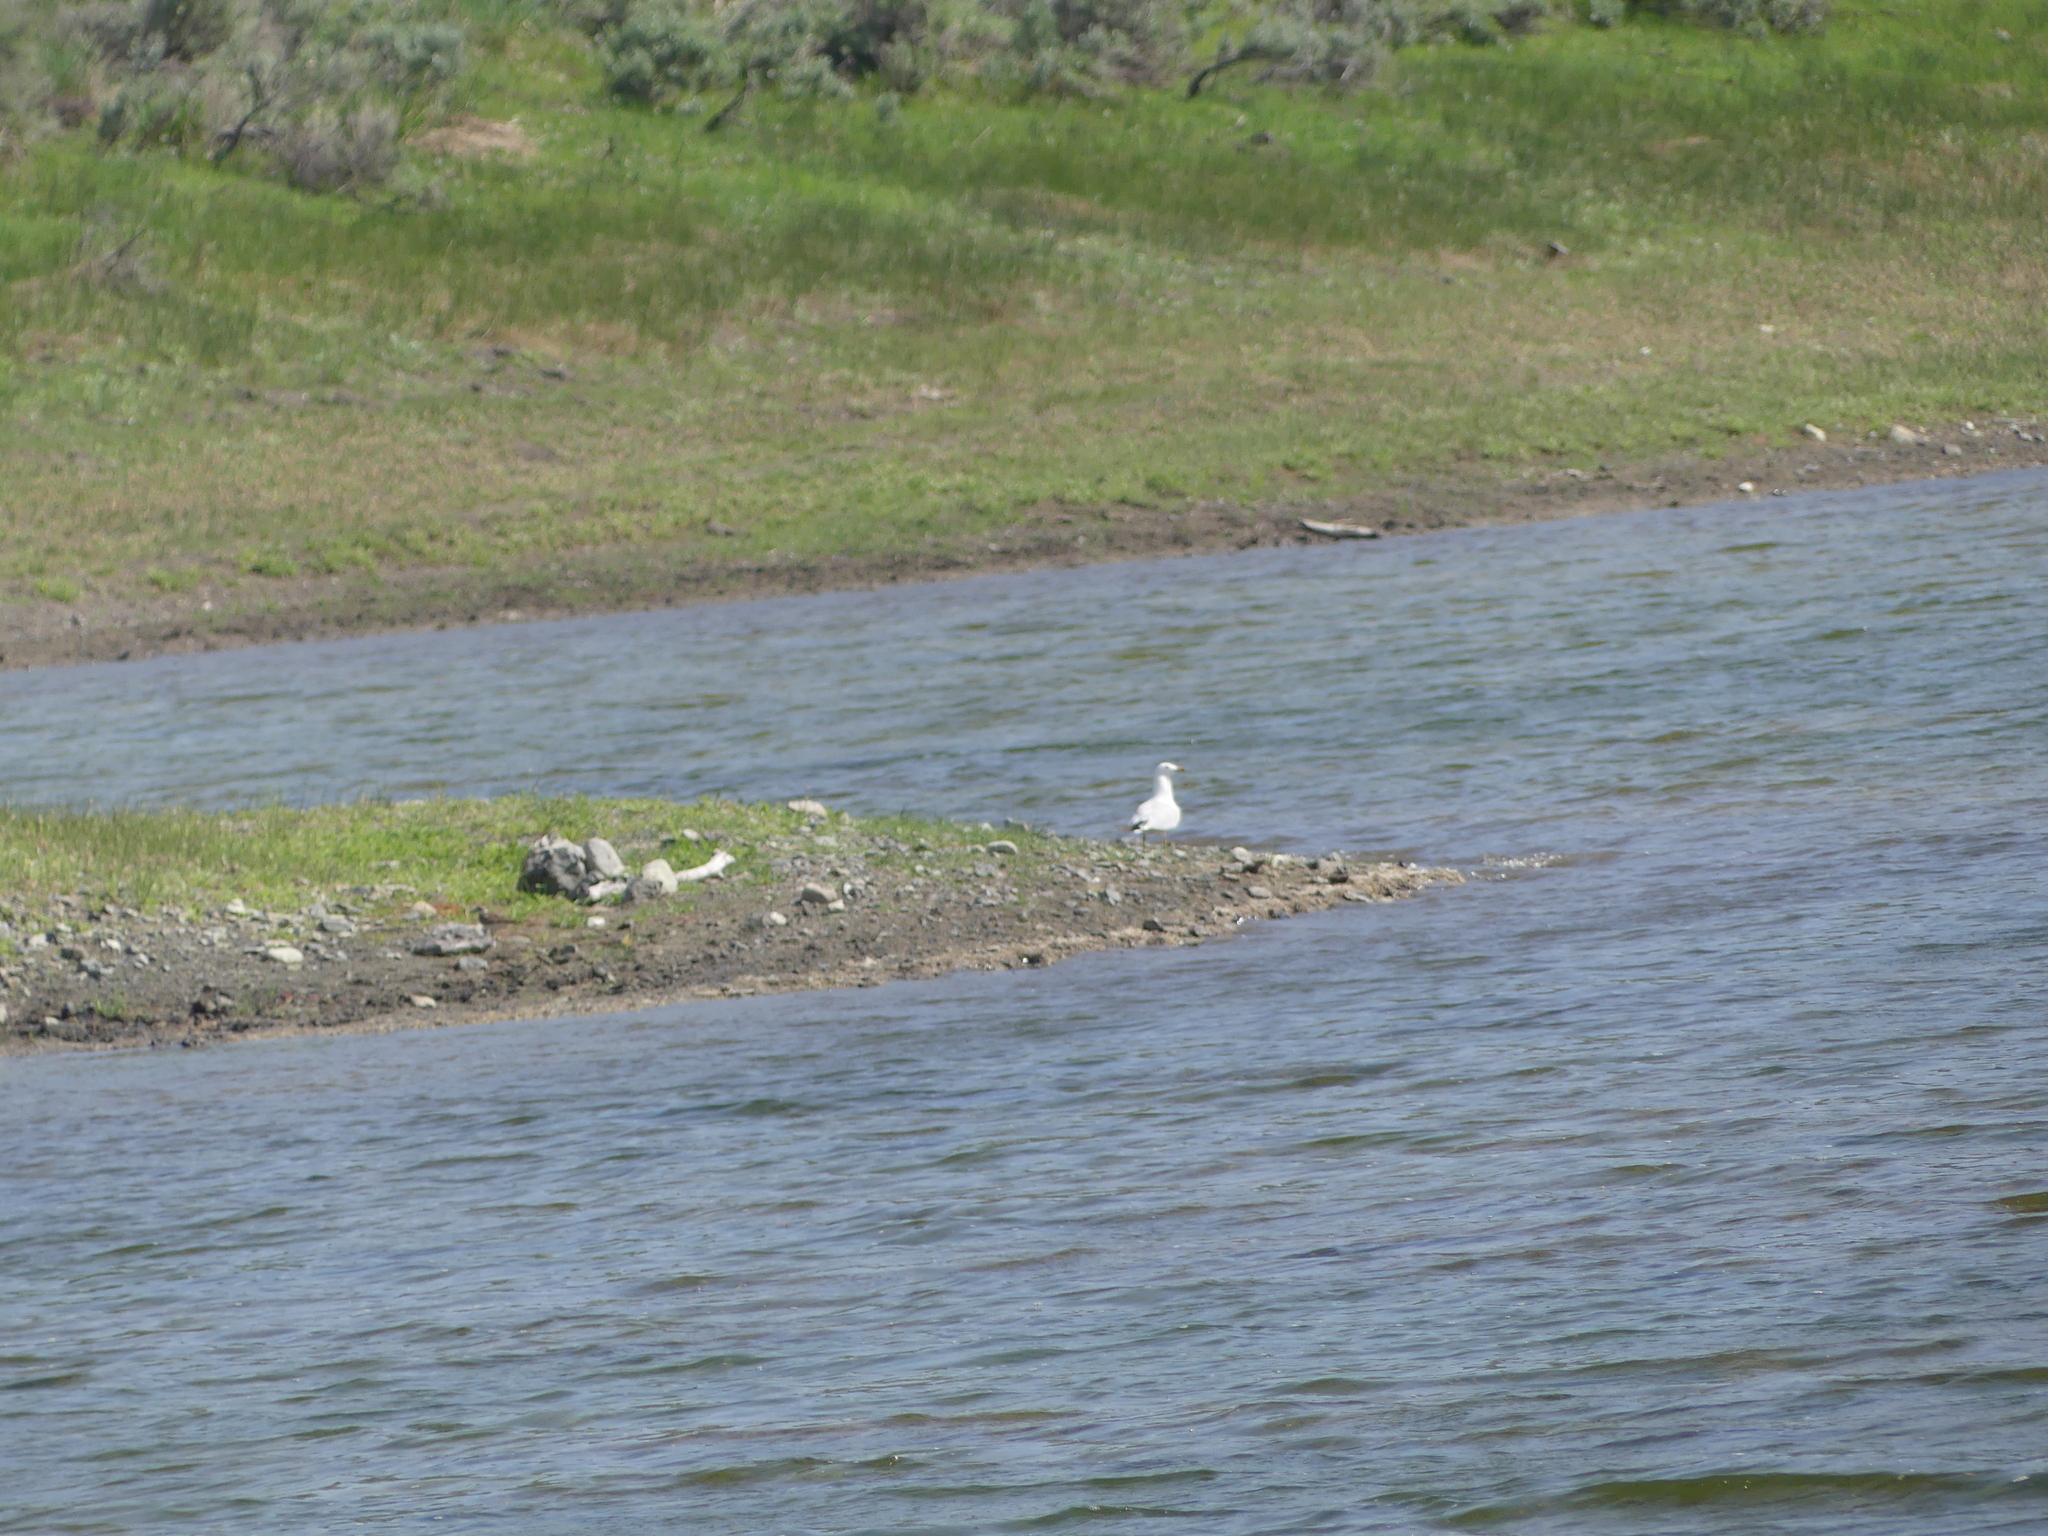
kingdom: Animalia
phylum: Chordata
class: Aves
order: Charadriiformes
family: Laridae
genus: Larus
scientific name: Larus delawarensis
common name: Ring-billed gull
